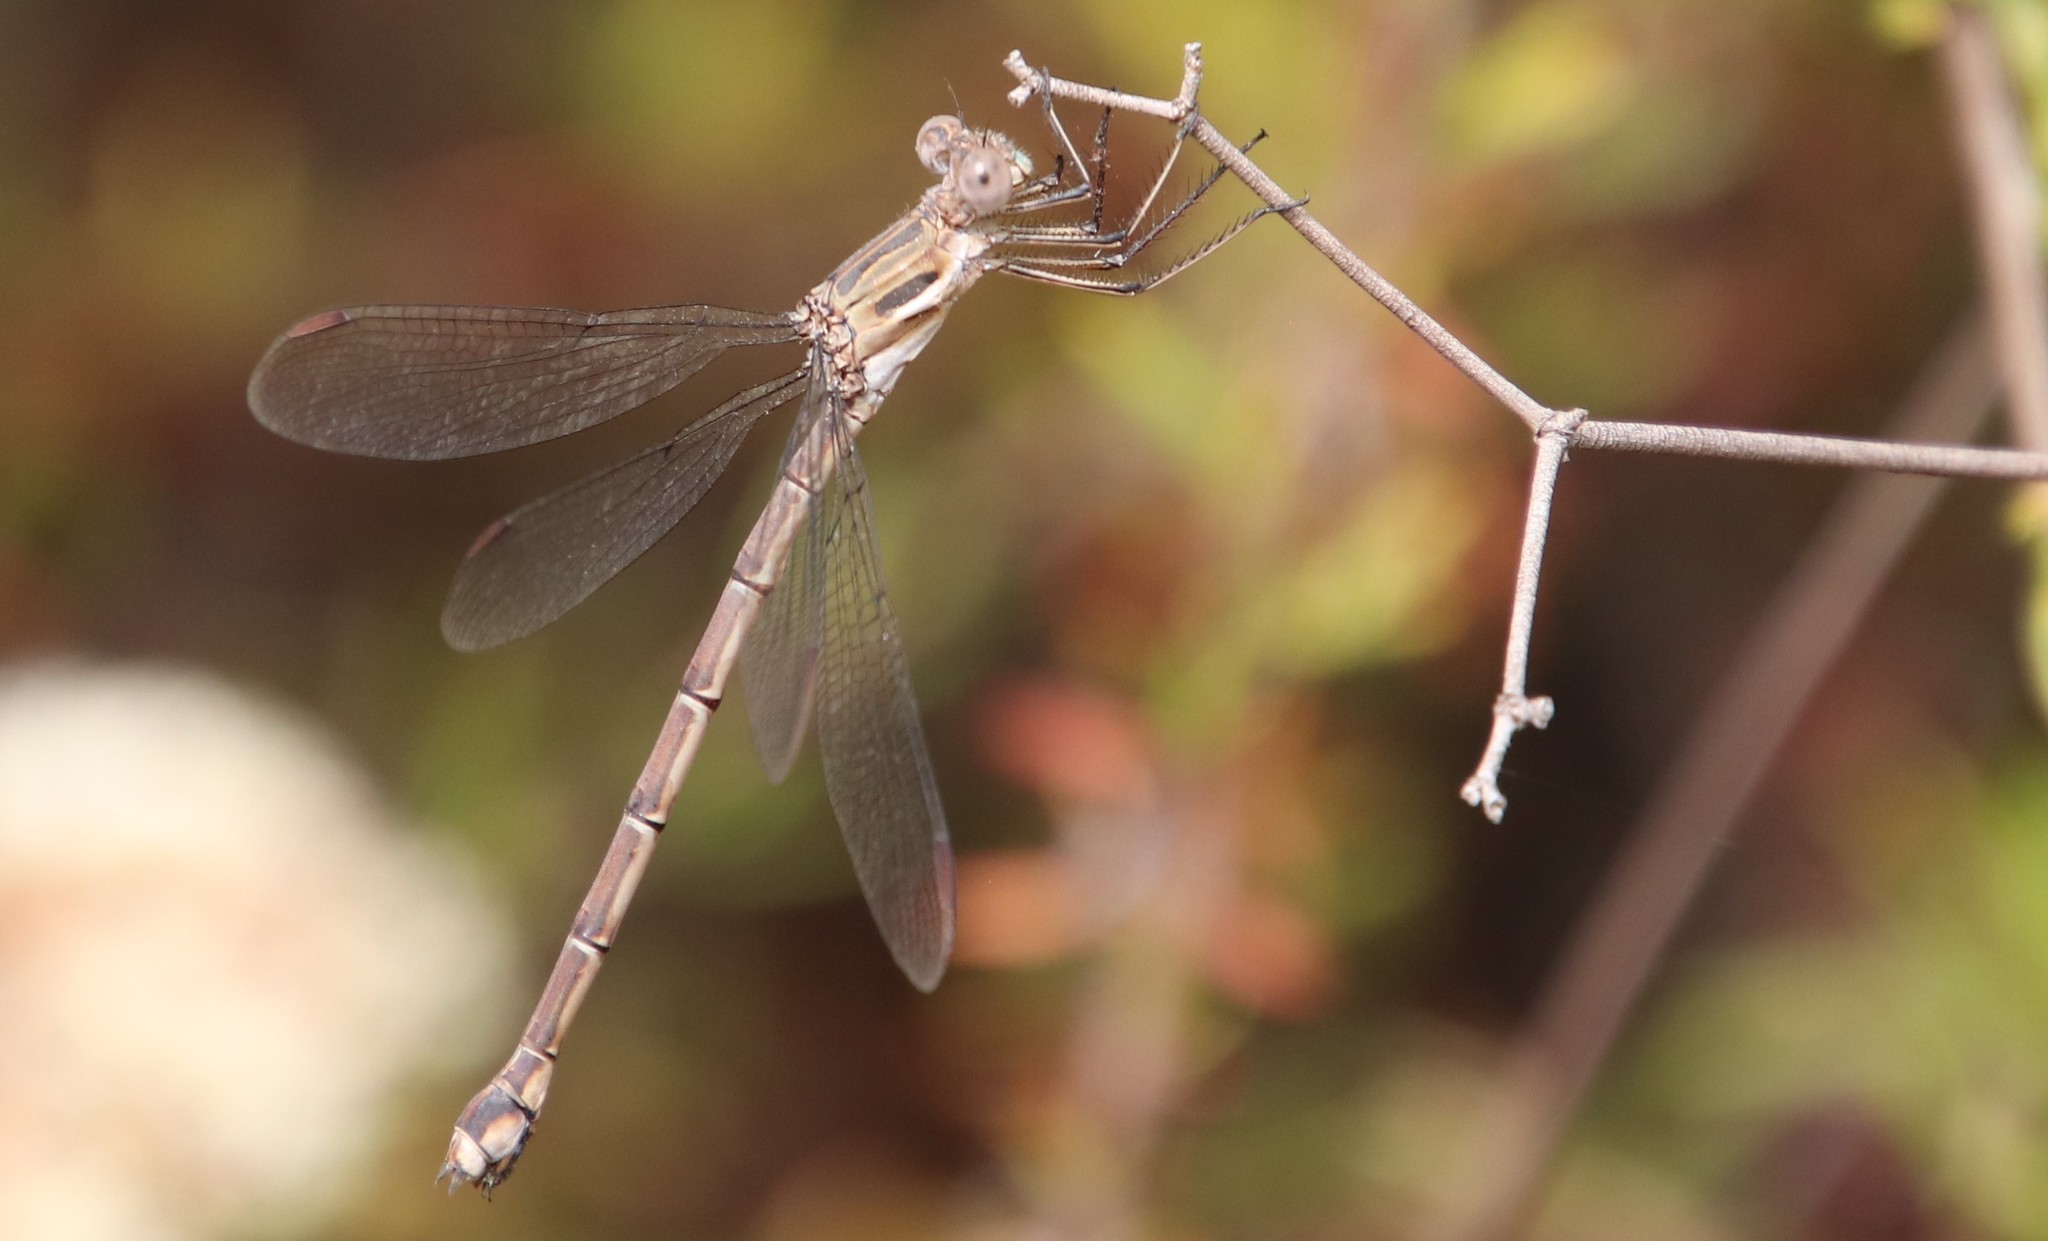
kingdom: Animalia
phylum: Arthropoda
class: Insecta
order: Odonata
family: Lestidae
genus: Archilestes
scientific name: Archilestes californicus
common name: California spreadwing
